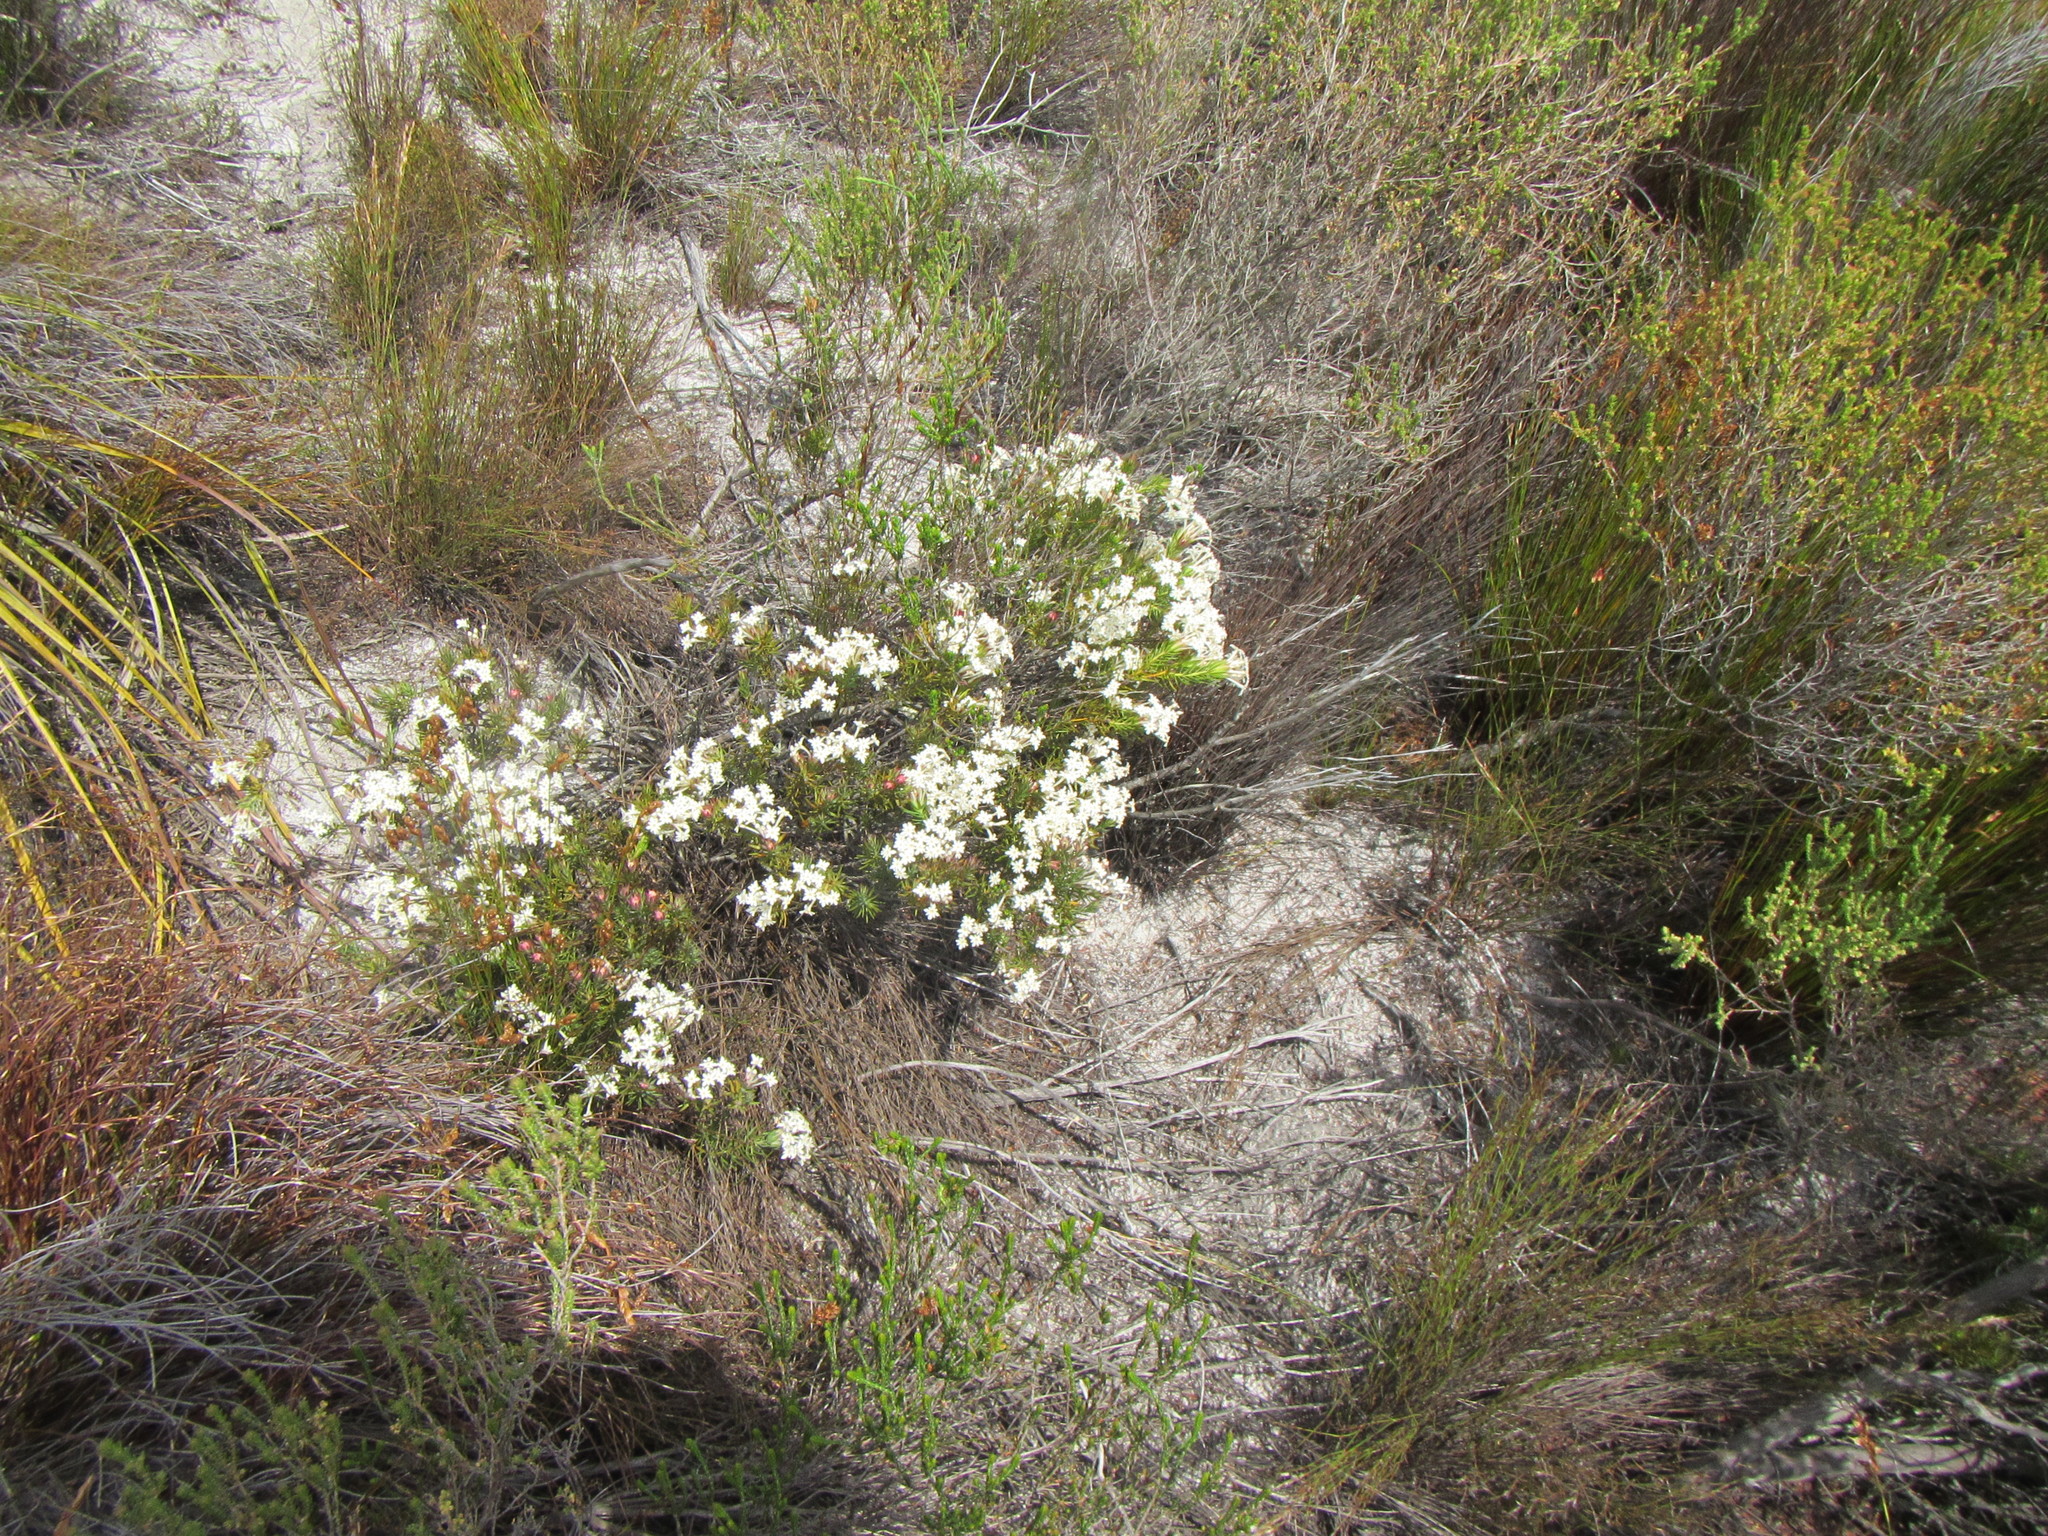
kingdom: Plantae
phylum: Tracheophyta
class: Magnoliopsida
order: Malvales
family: Thymelaeaceae
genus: Gnidia
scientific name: Gnidia pinifolia
